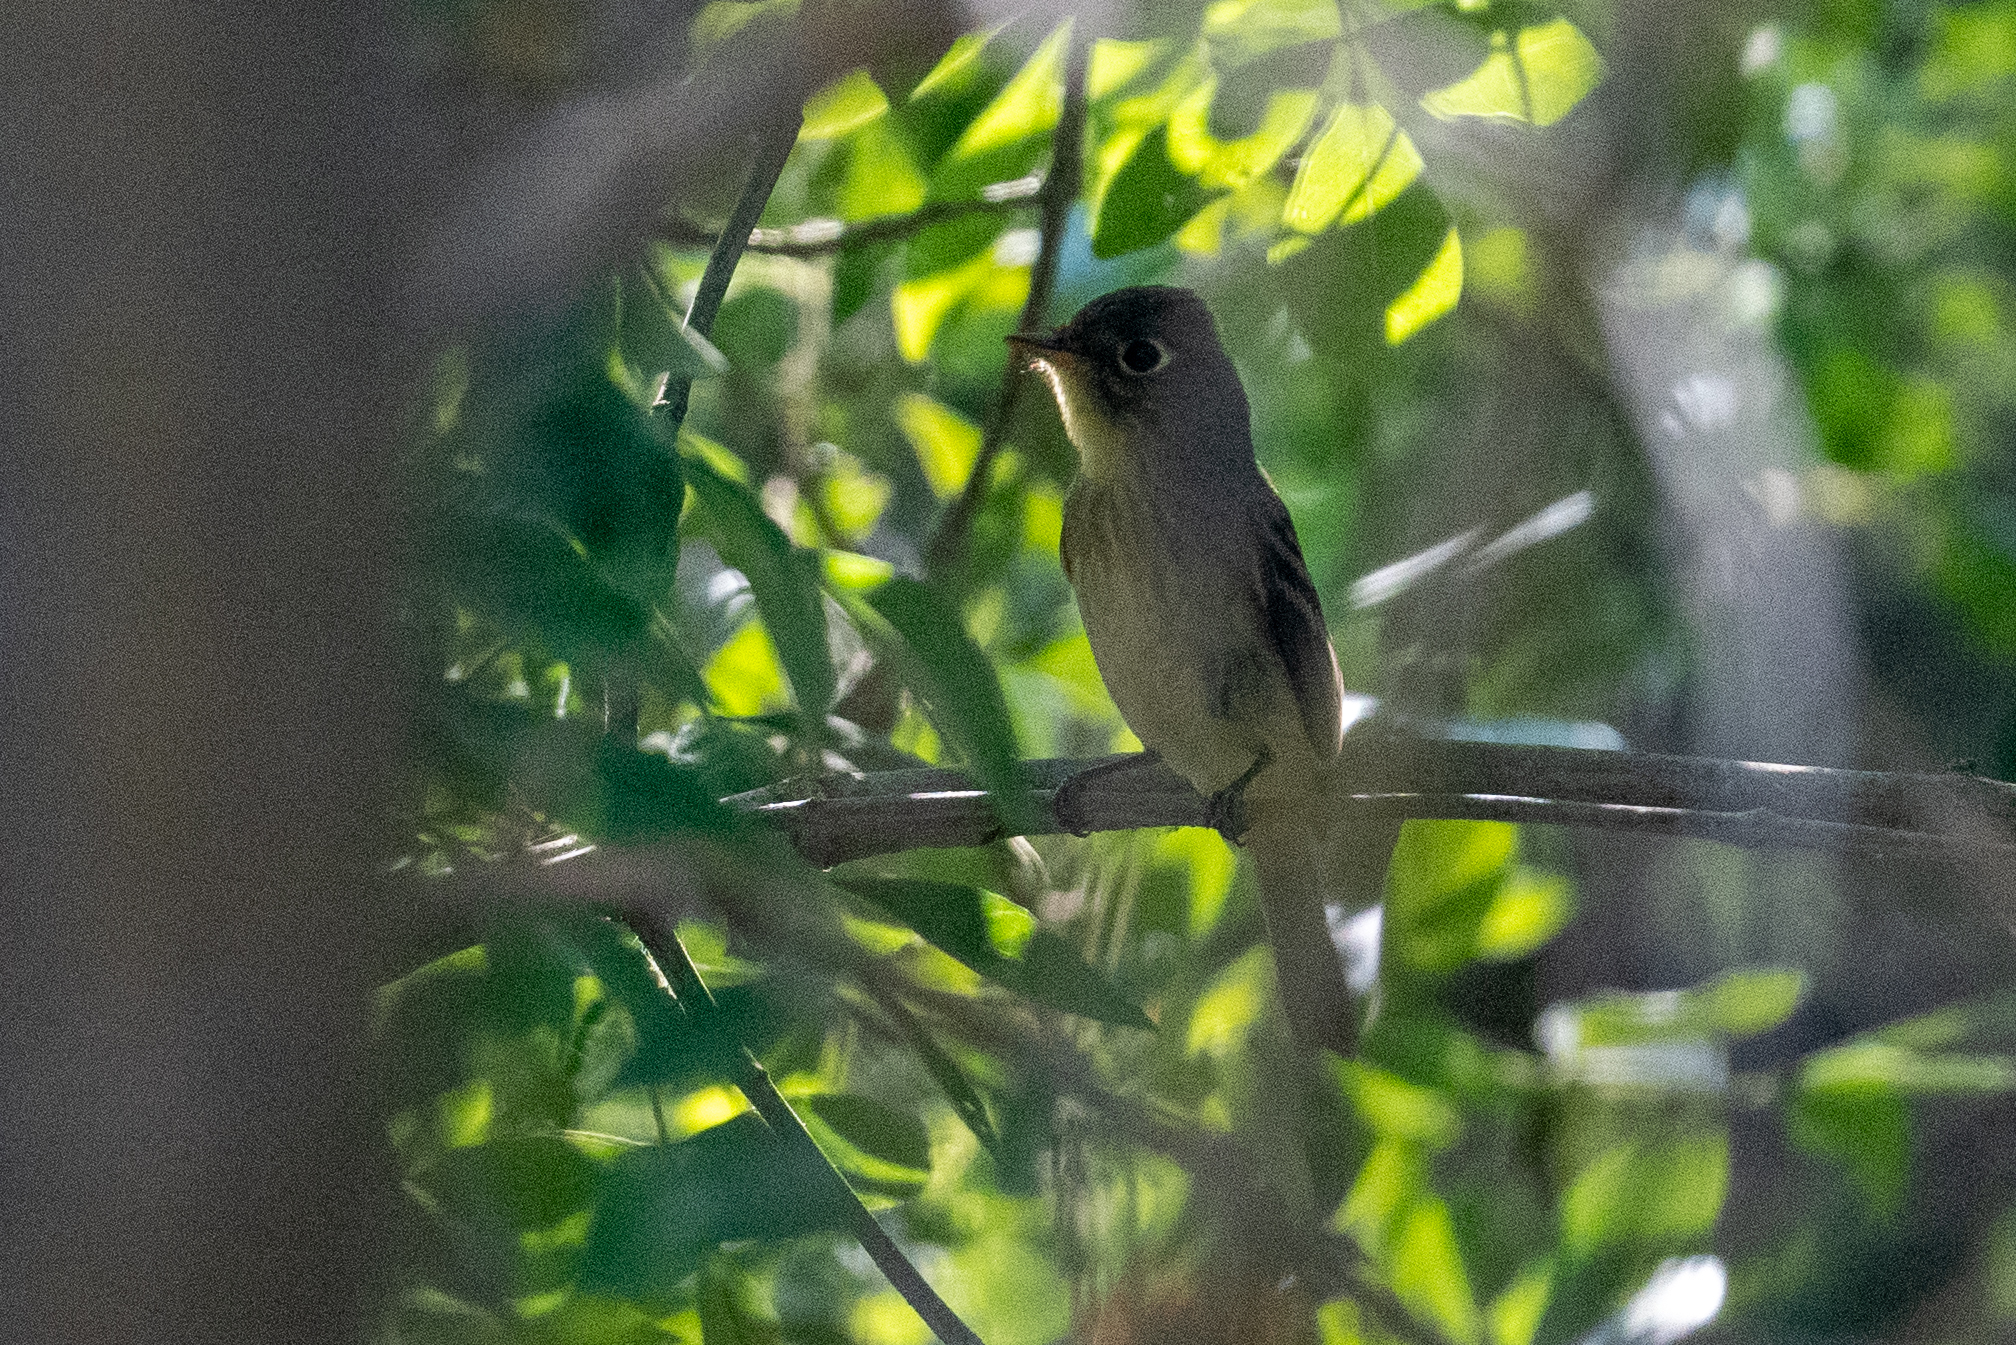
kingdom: Animalia
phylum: Chordata
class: Aves
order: Passeriformes
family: Tyrannidae
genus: Empidonax
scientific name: Empidonax difficilis
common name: Pacific-slope flycatcher
